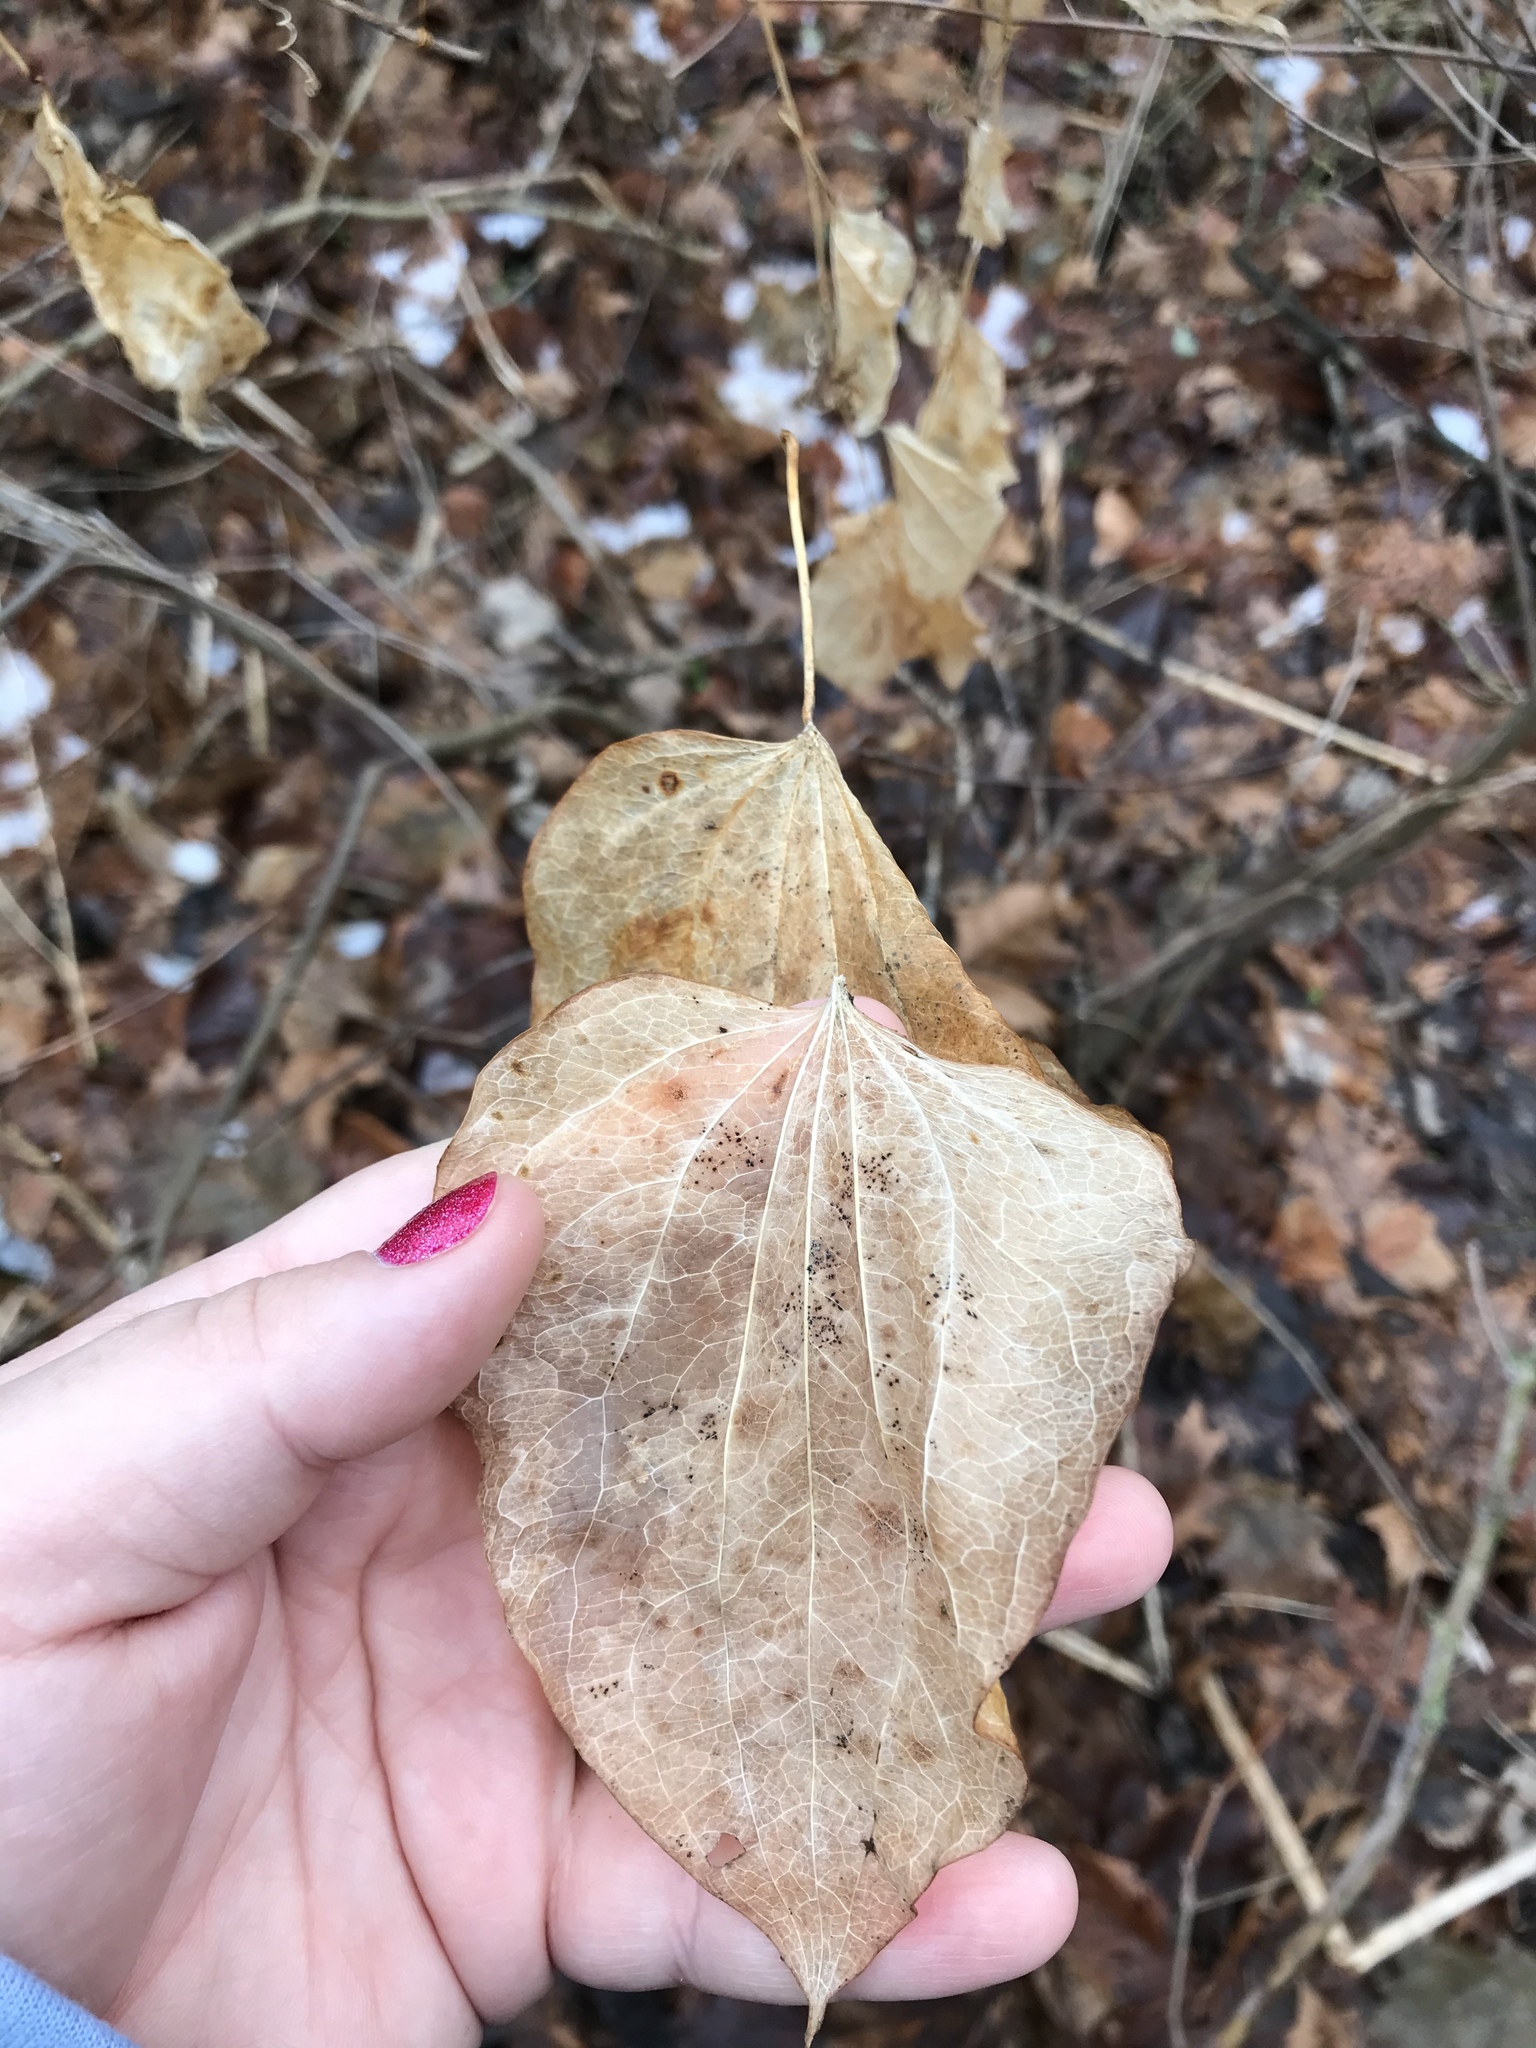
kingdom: Plantae
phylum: Tracheophyta
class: Liliopsida
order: Liliales
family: Smilacaceae
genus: Smilax
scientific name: Smilax herbacea
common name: Jacob's-ladder
